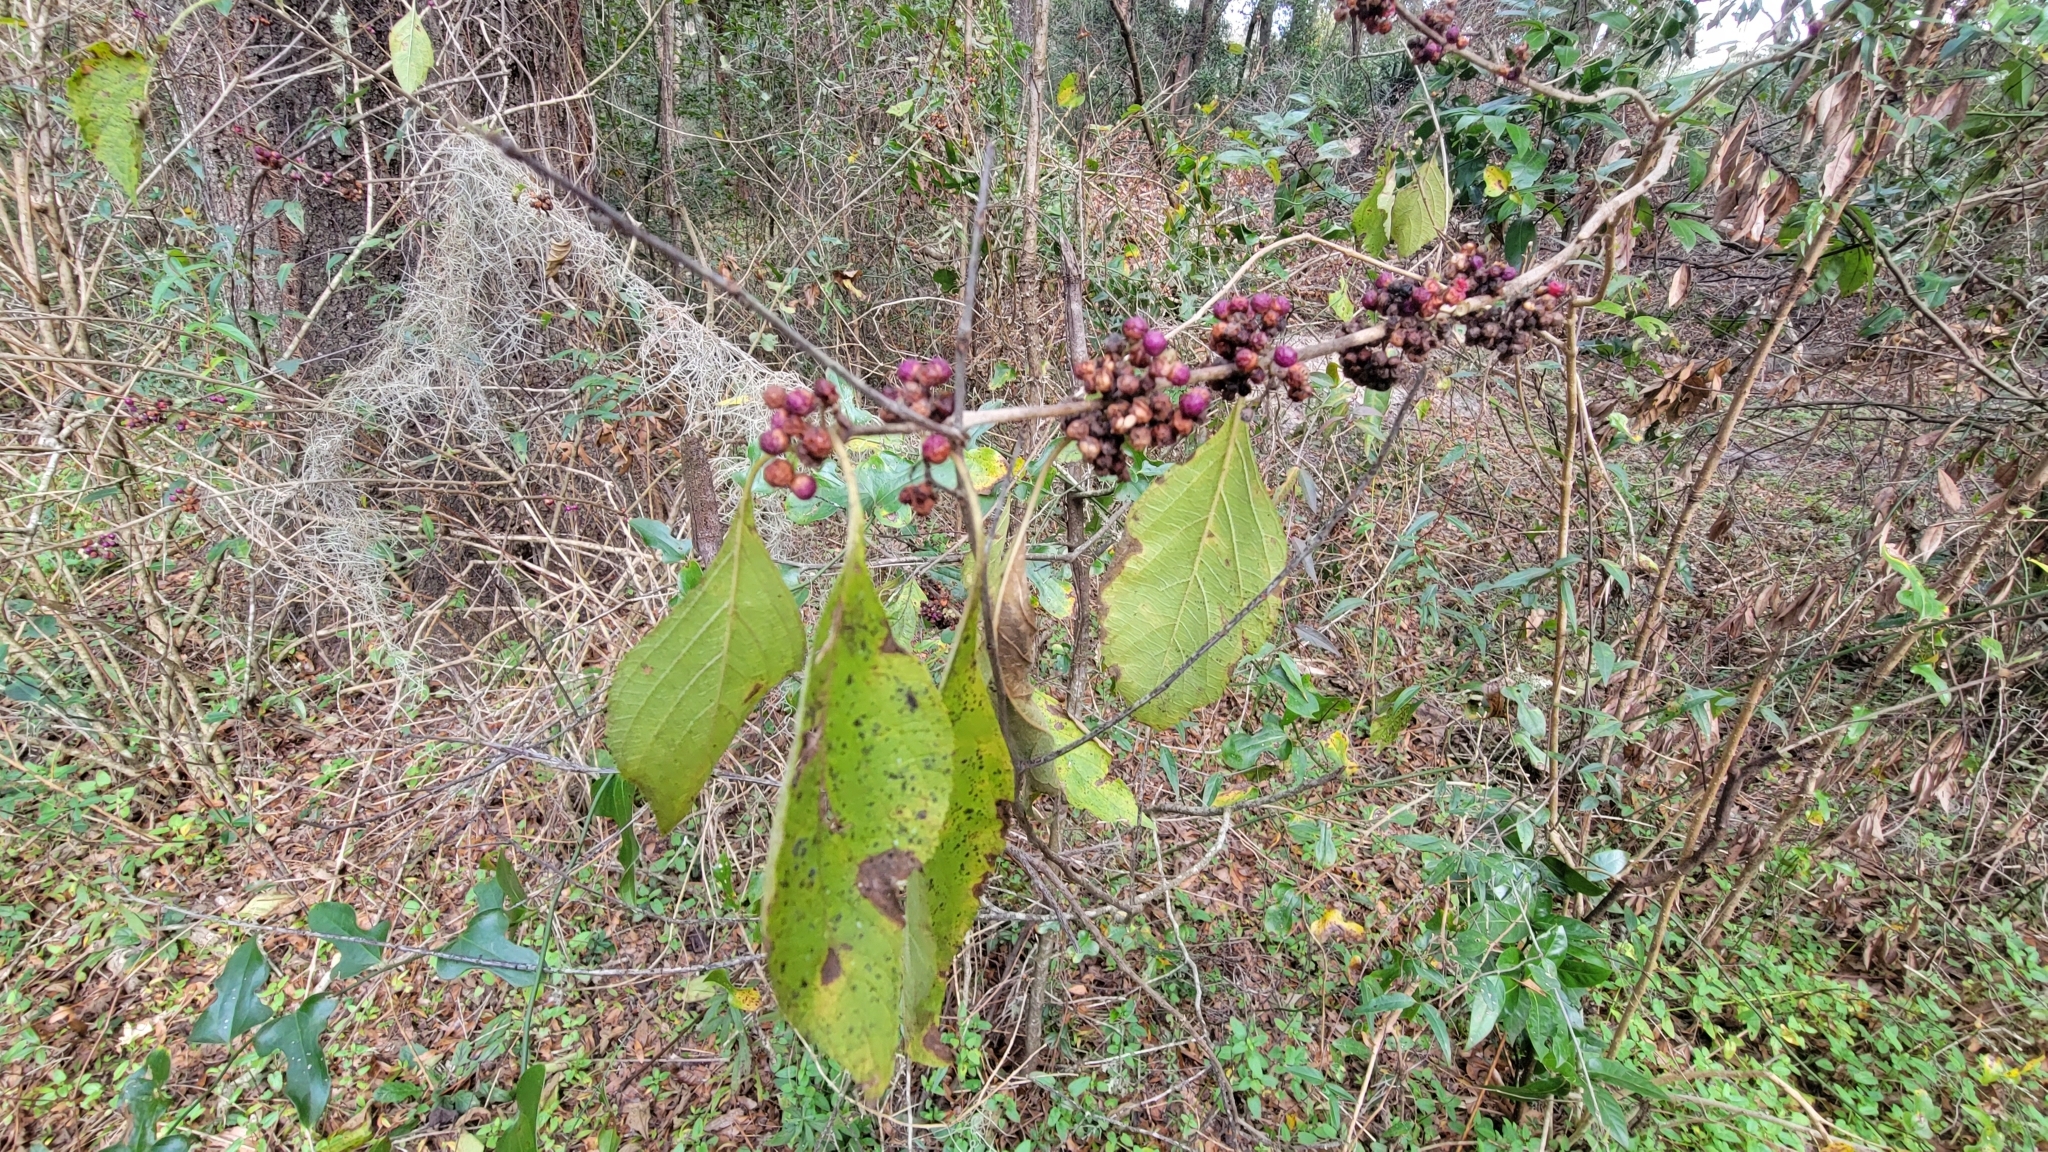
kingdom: Plantae
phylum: Tracheophyta
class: Magnoliopsida
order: Lamiales
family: Lamiaceae
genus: Callicarpa
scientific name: Callicarpa americana
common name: American beautyberry
